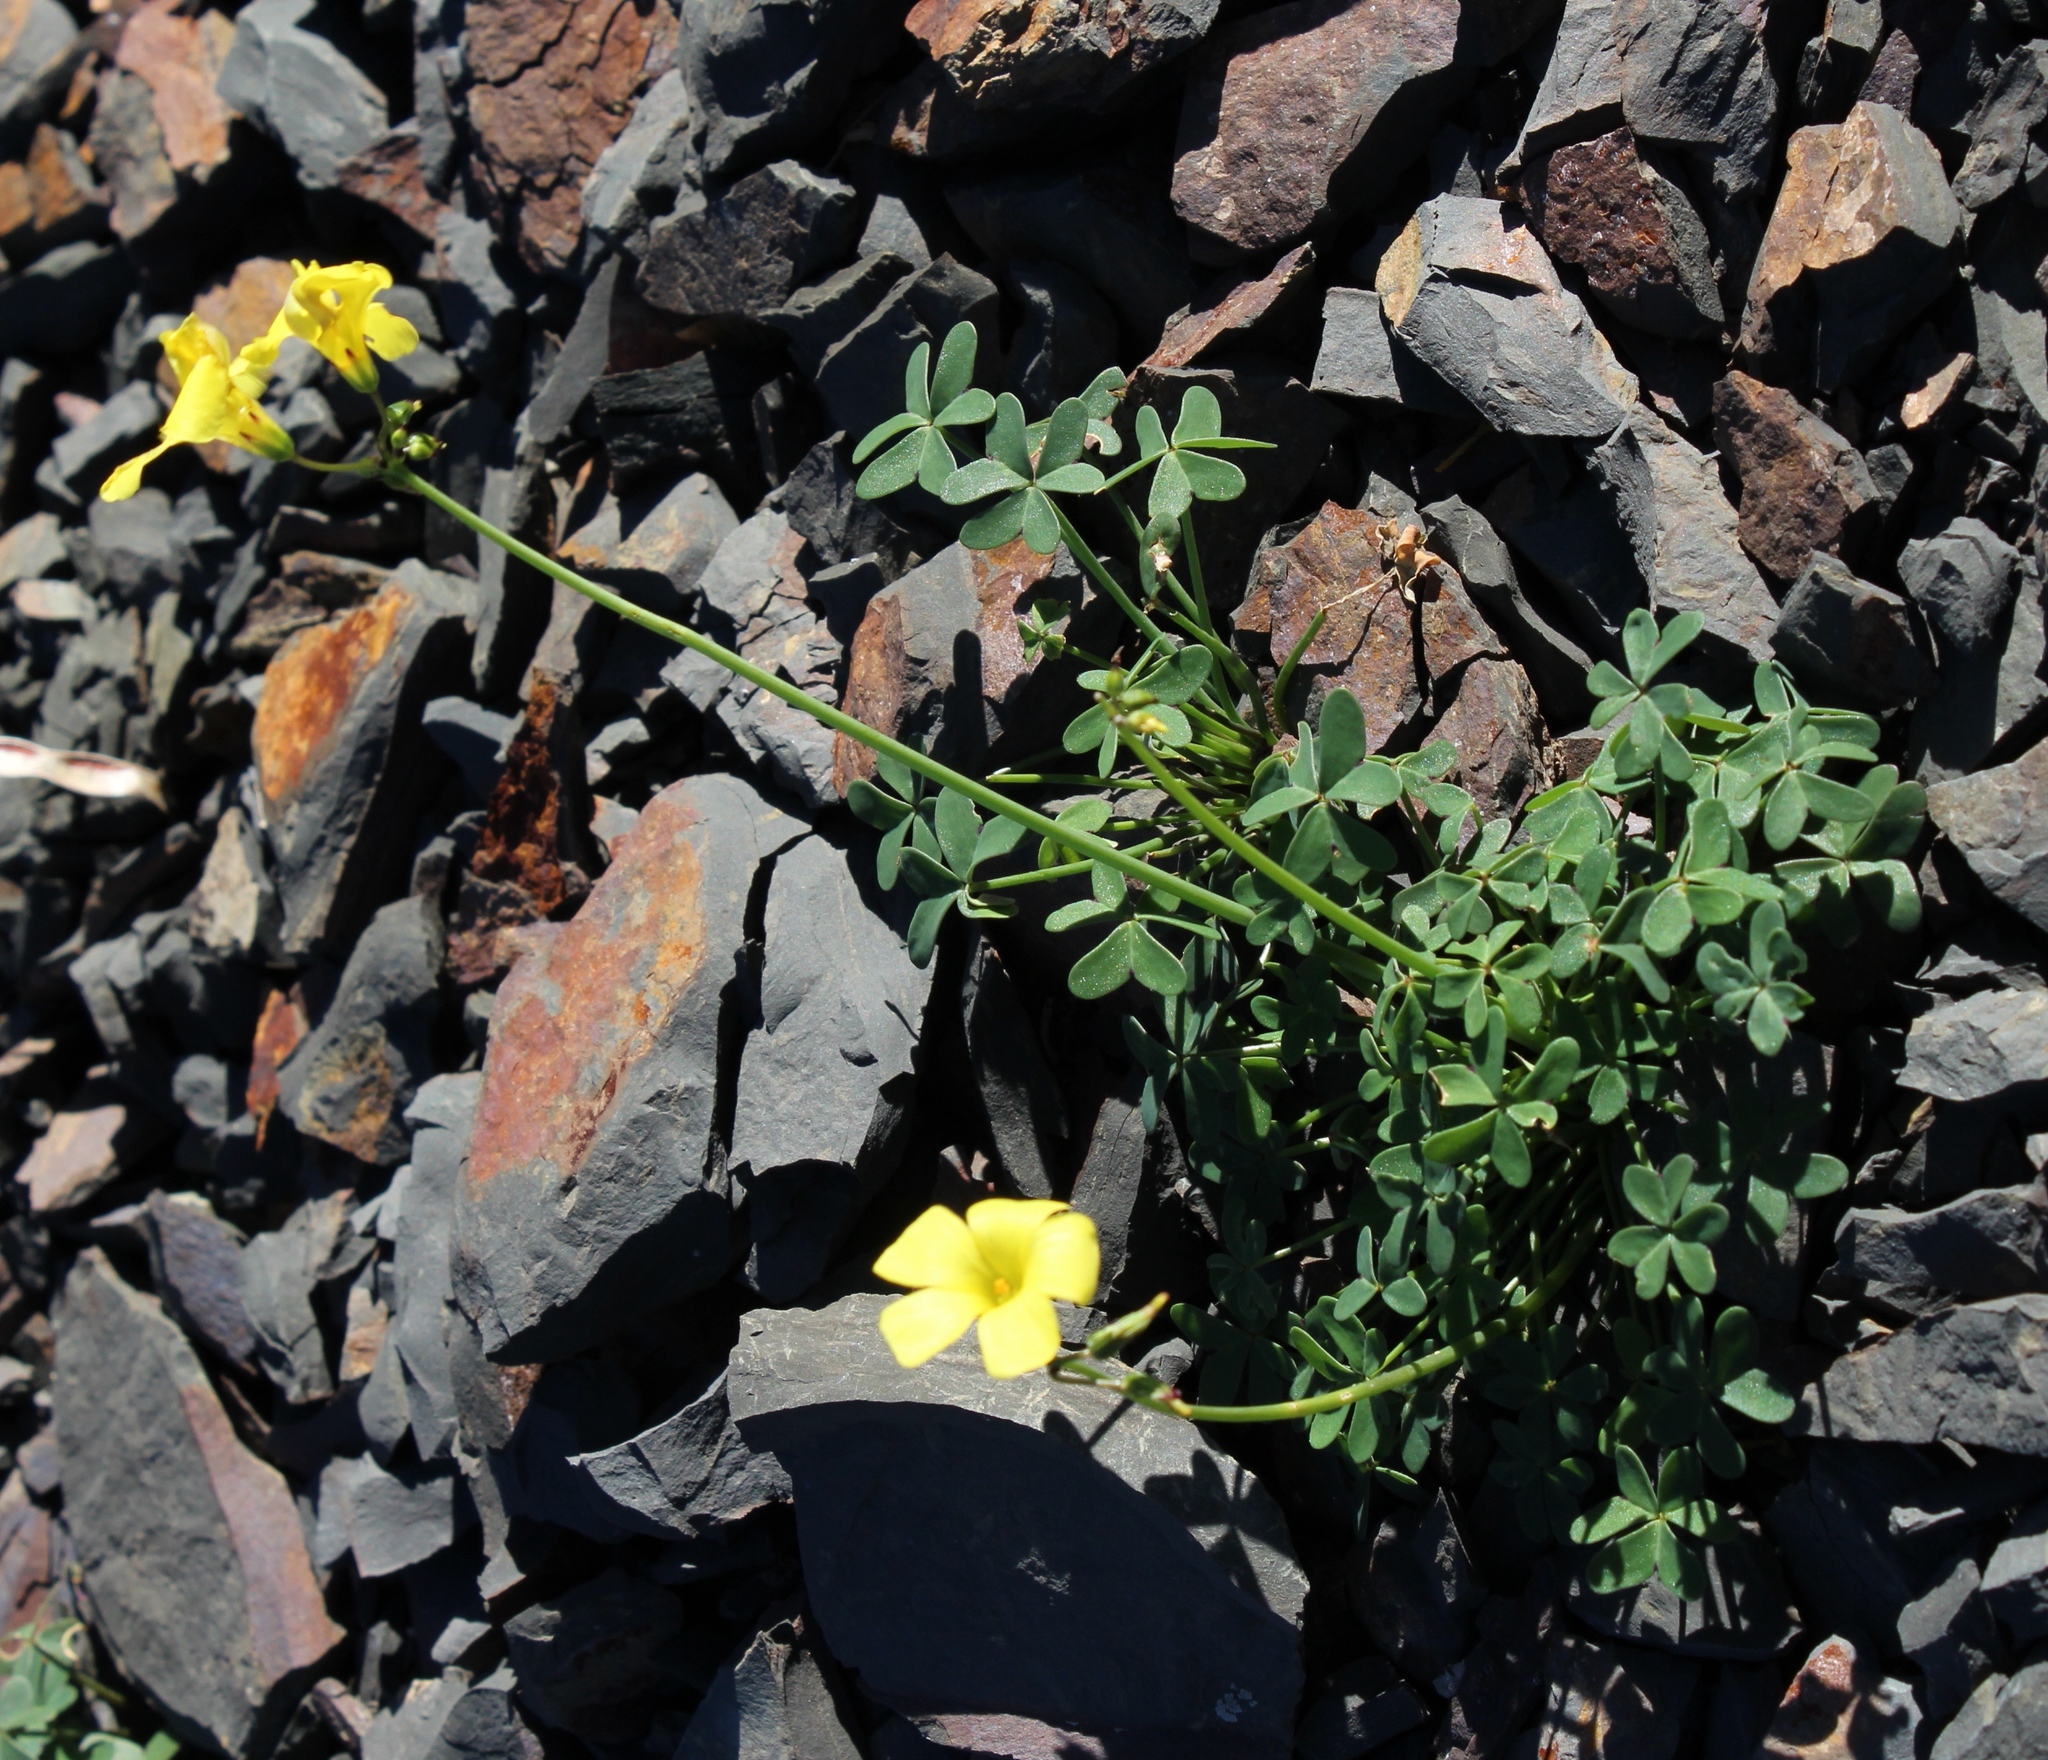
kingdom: Plantae
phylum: Tracheophyta
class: Magnoliopsida
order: Oxalidales
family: Oxalidaceae
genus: Oxalis
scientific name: Oxalis pes-caprae
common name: Bermuda-buttercup
